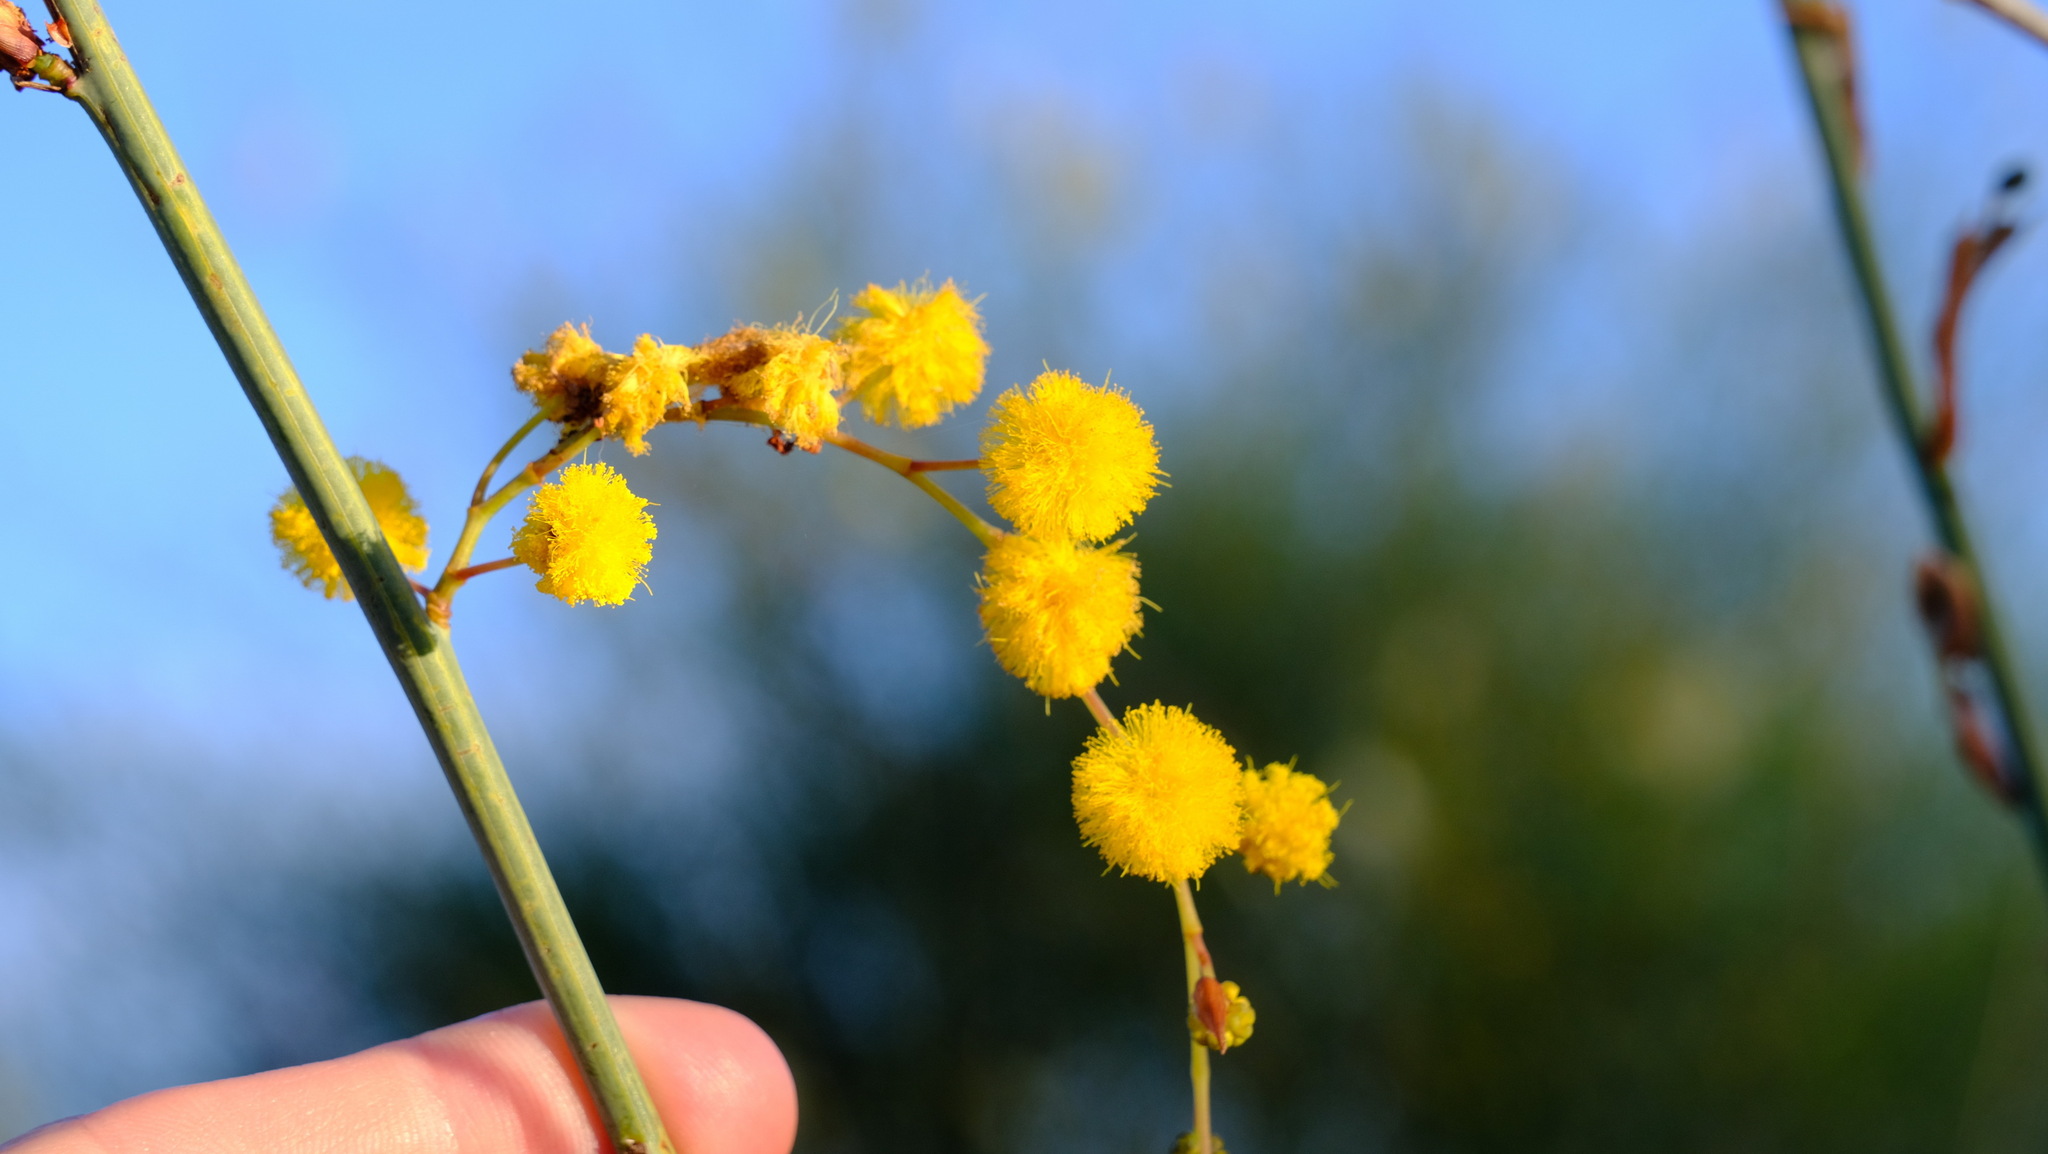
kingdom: Plantae
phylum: Tracheophyta
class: Magnoliopsida
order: Fabales
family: Fabaceae
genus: Acacia
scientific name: Acacia restiacea
